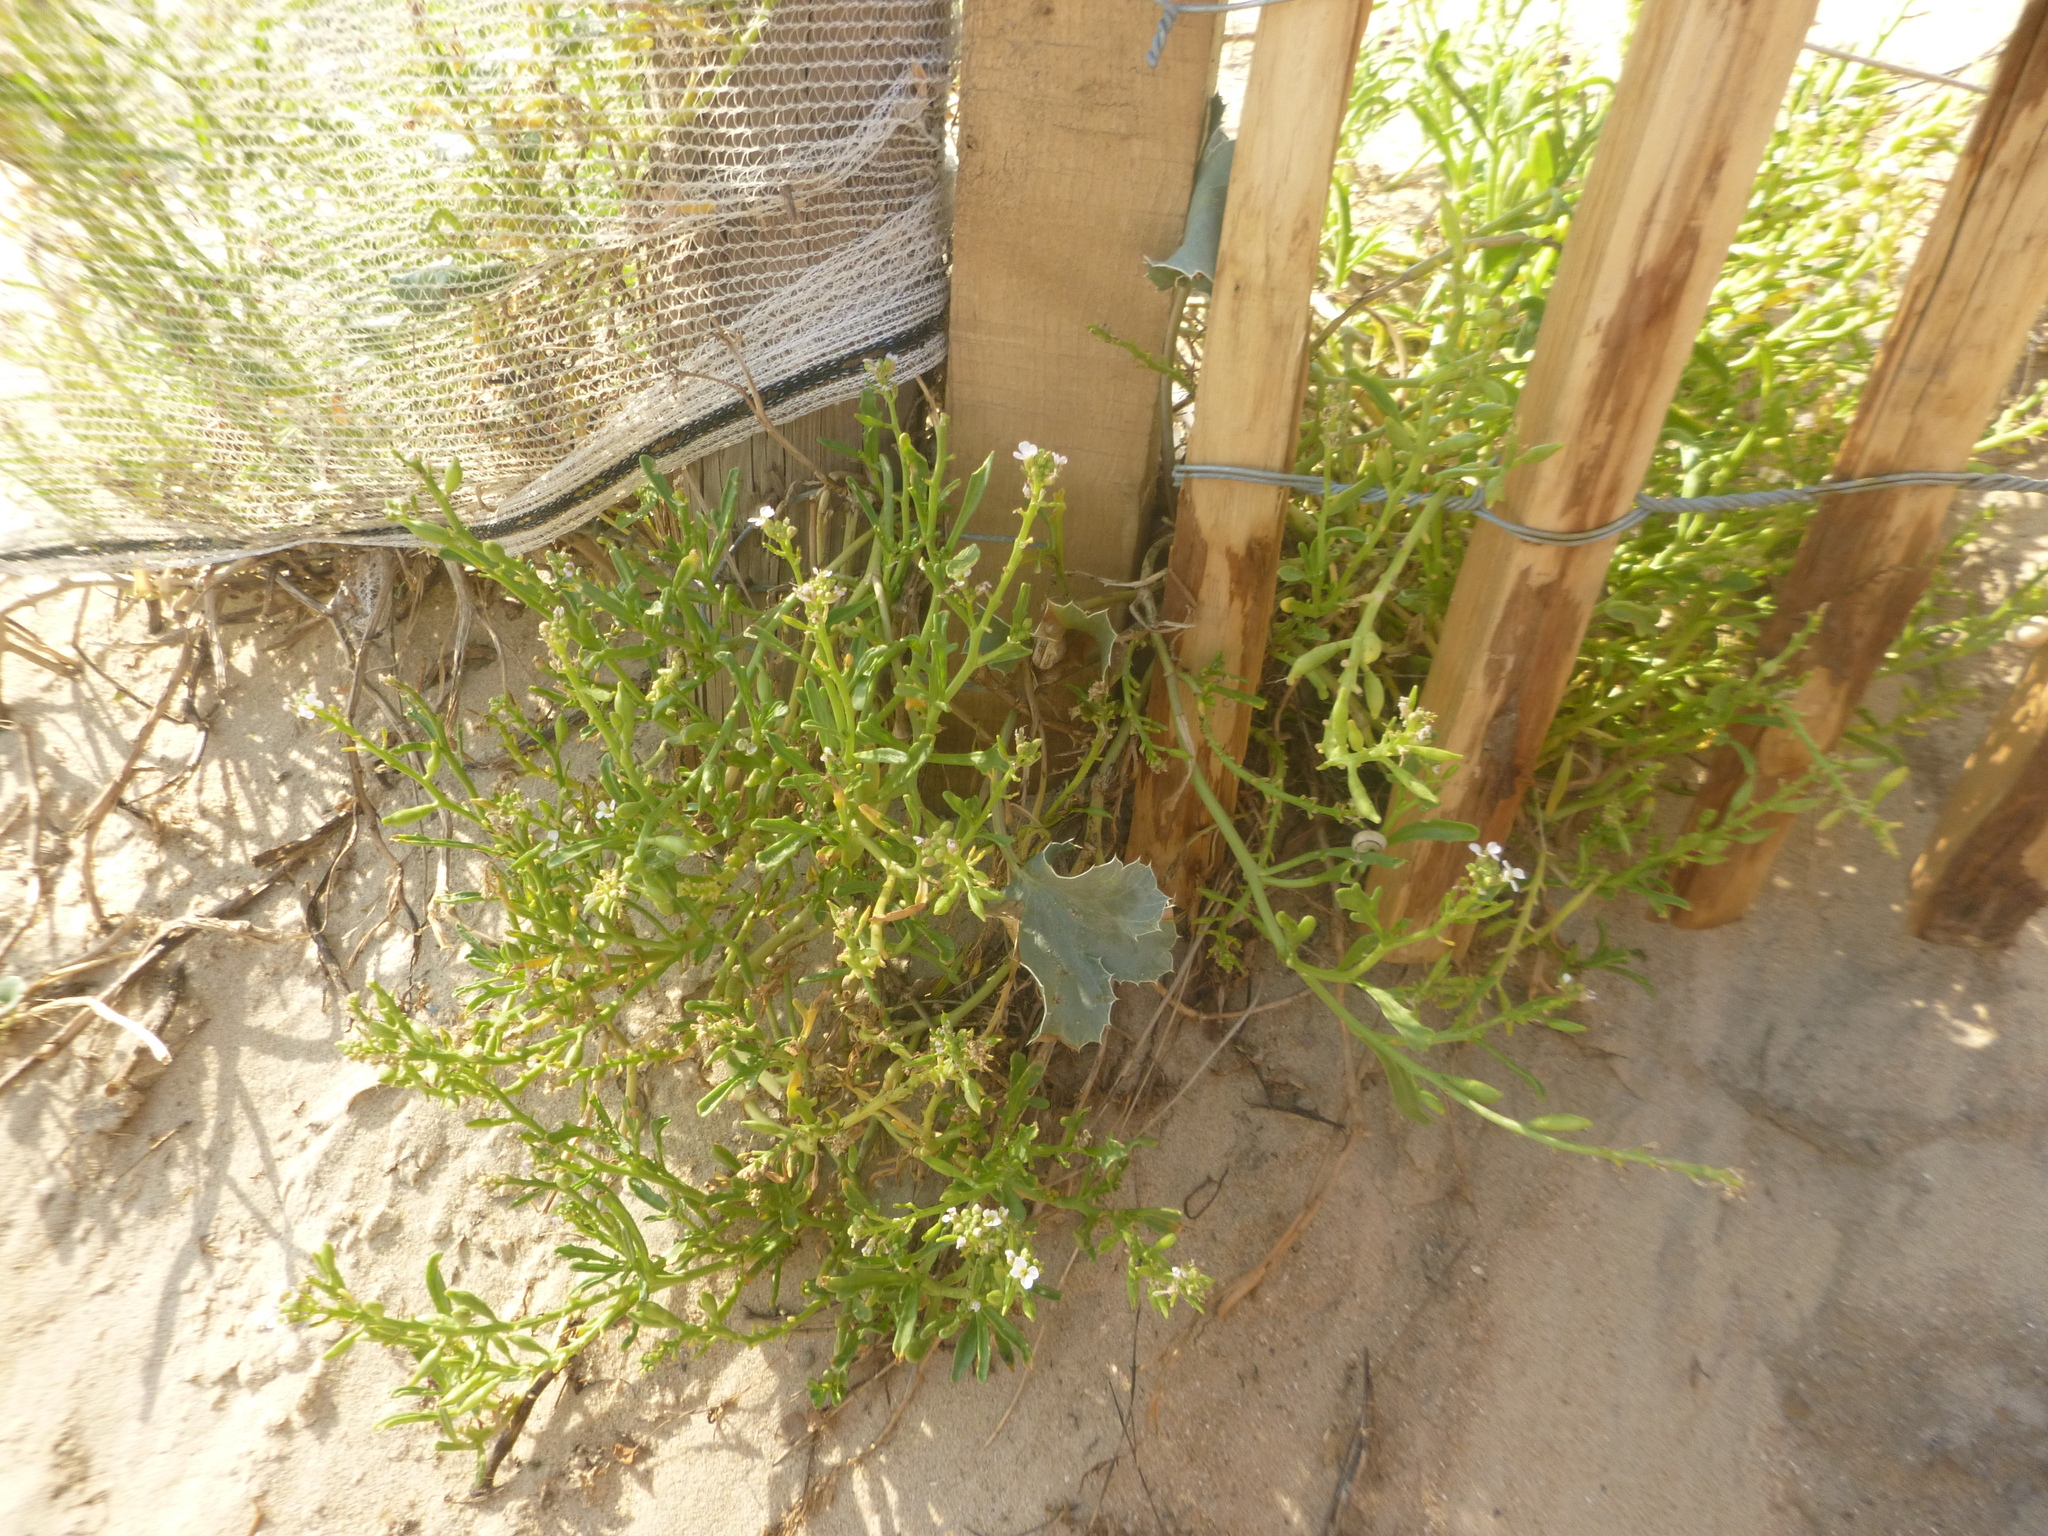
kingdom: Plantae
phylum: Tracheophyta
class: Magnoliopsida
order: Brassicales
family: Brassicaceae
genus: Cakile
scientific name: Cakile maritima
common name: Sea rocket
